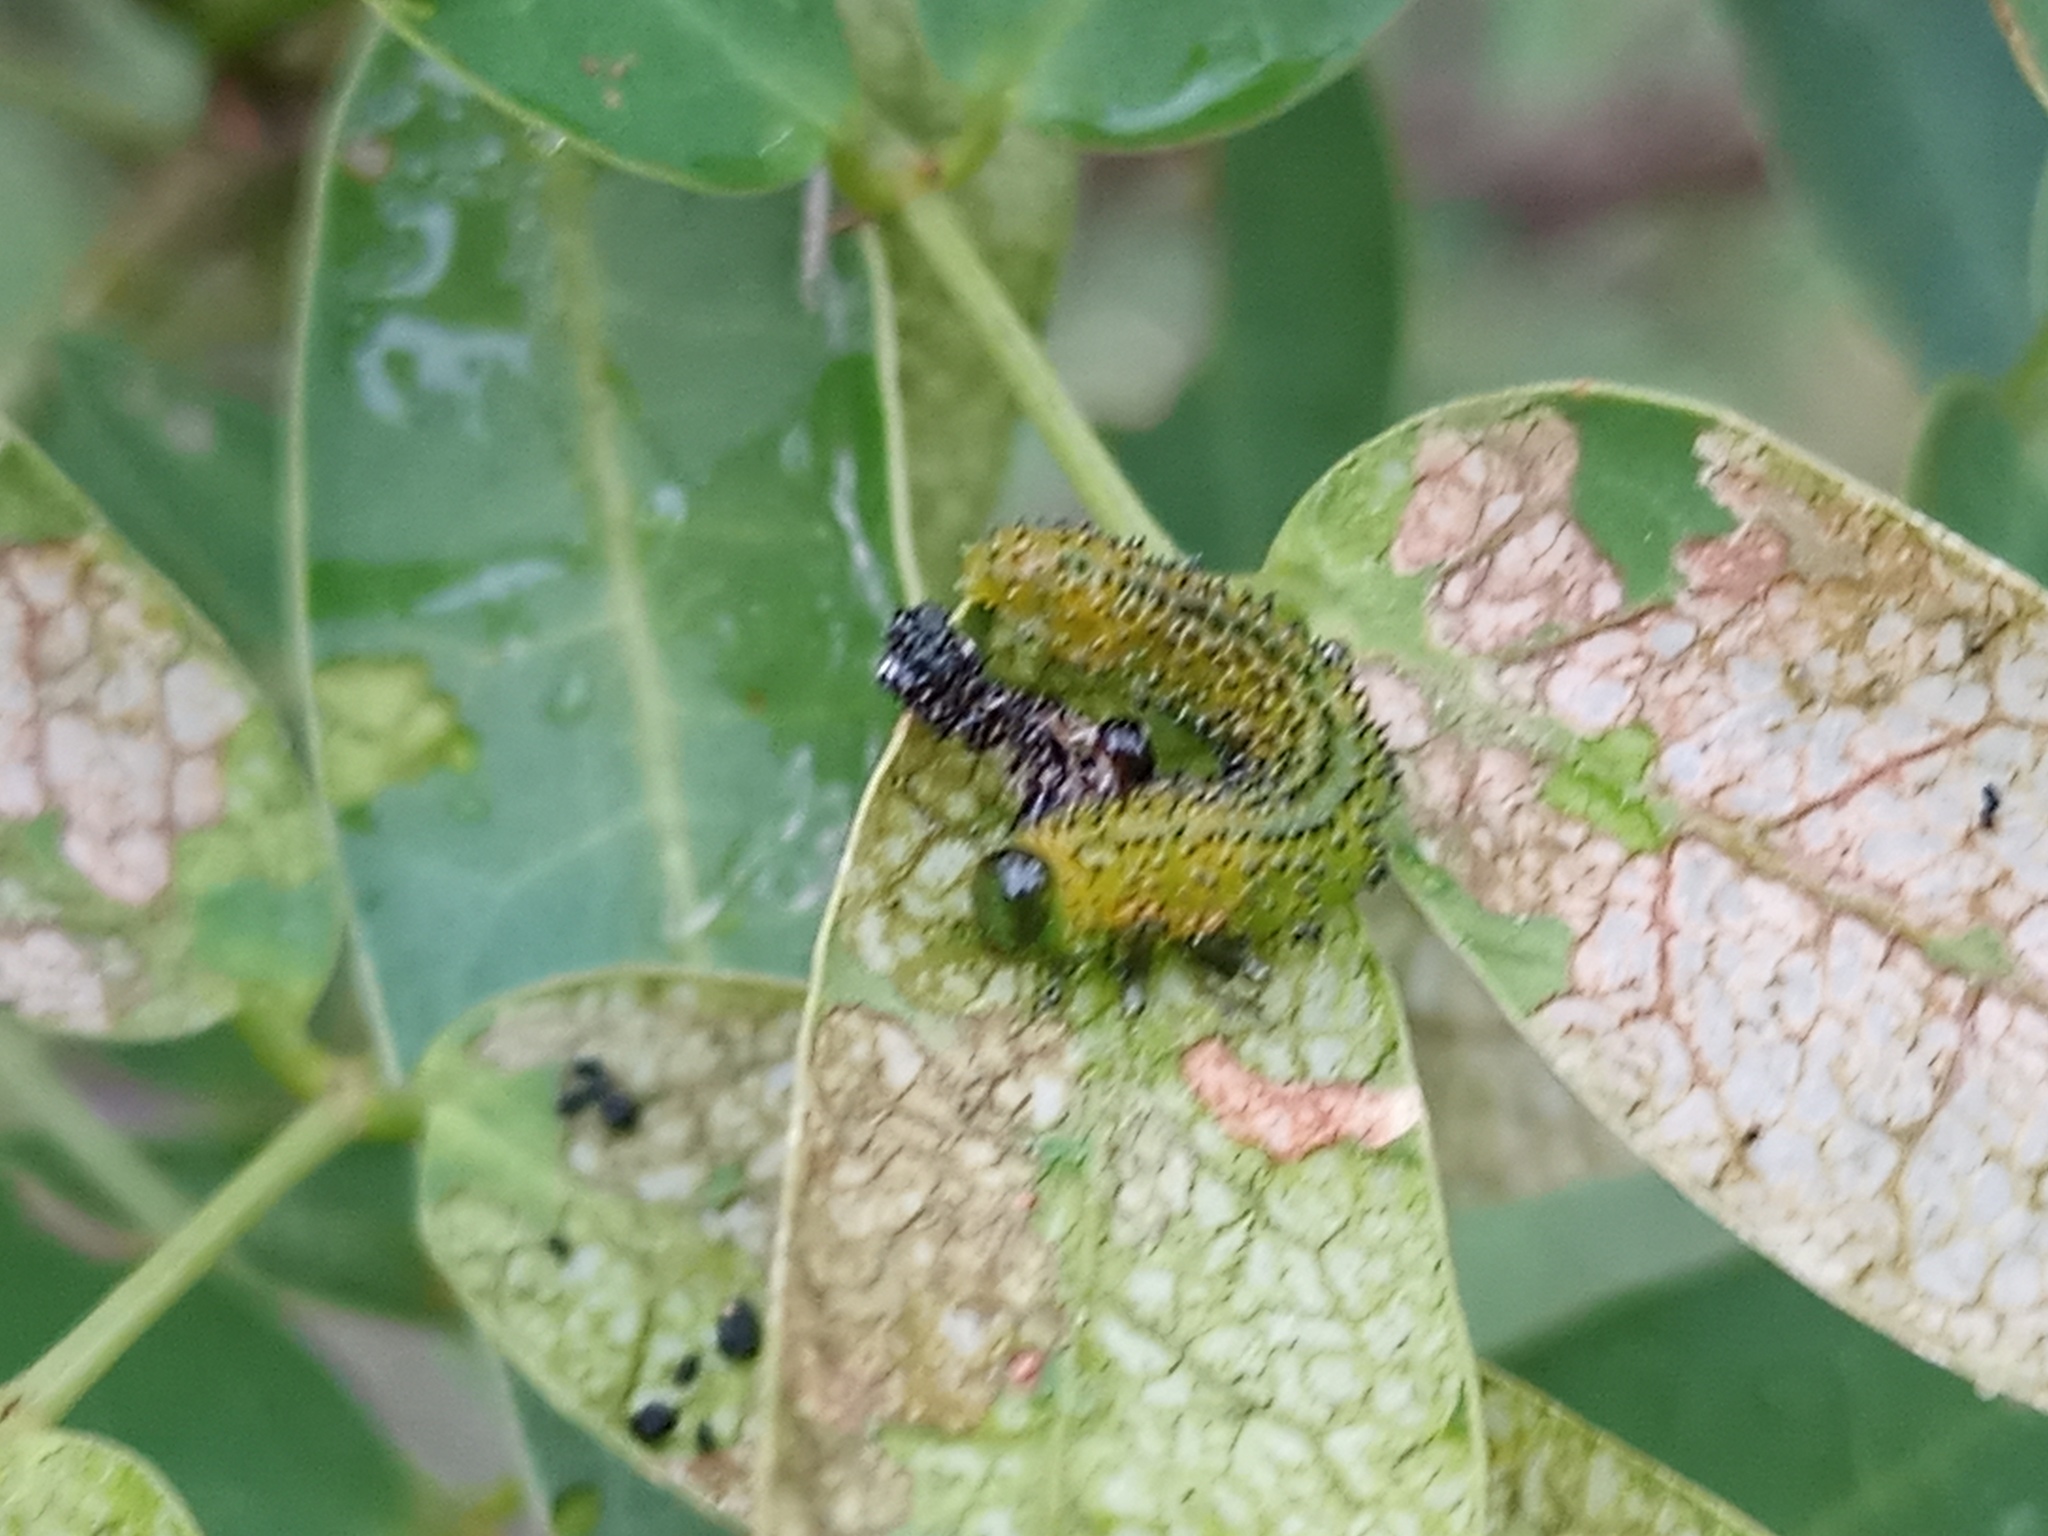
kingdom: Animalia
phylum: Arthropoda
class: Insecta
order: Hymenoptera
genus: Adurgoa
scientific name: Adurgoa
